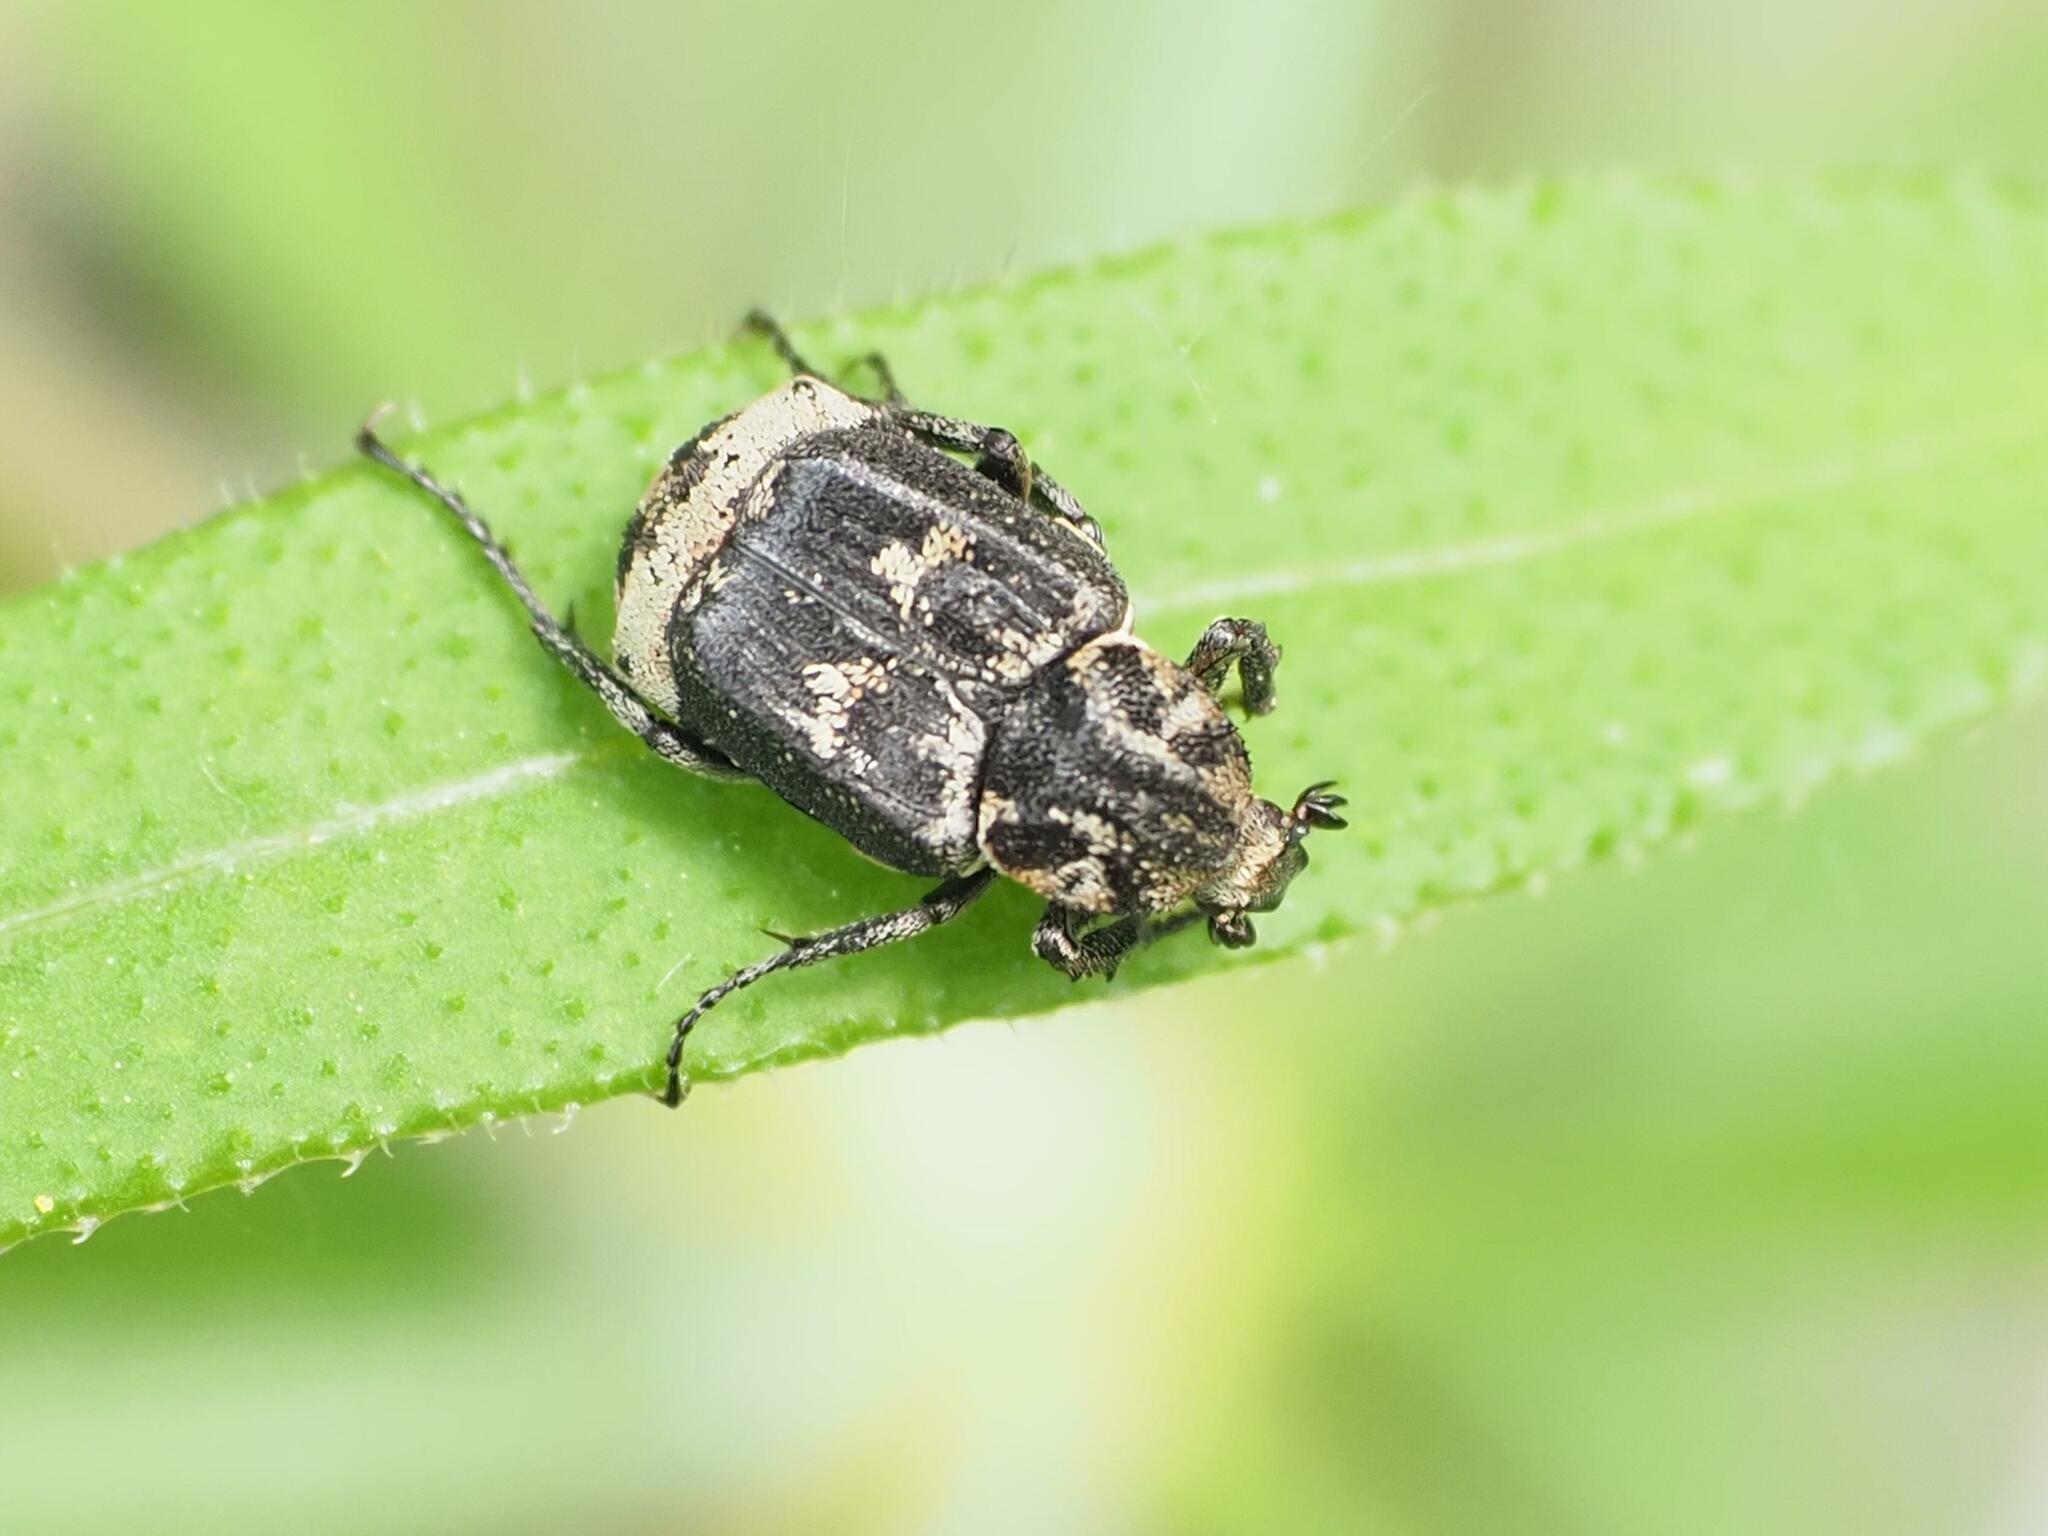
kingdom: Animalia
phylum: Arthropoda
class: Insecta
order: Coleoptera
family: Scarabaeidae
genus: Valgus
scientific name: Valgus hemipterus
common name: Bug flower chafer
